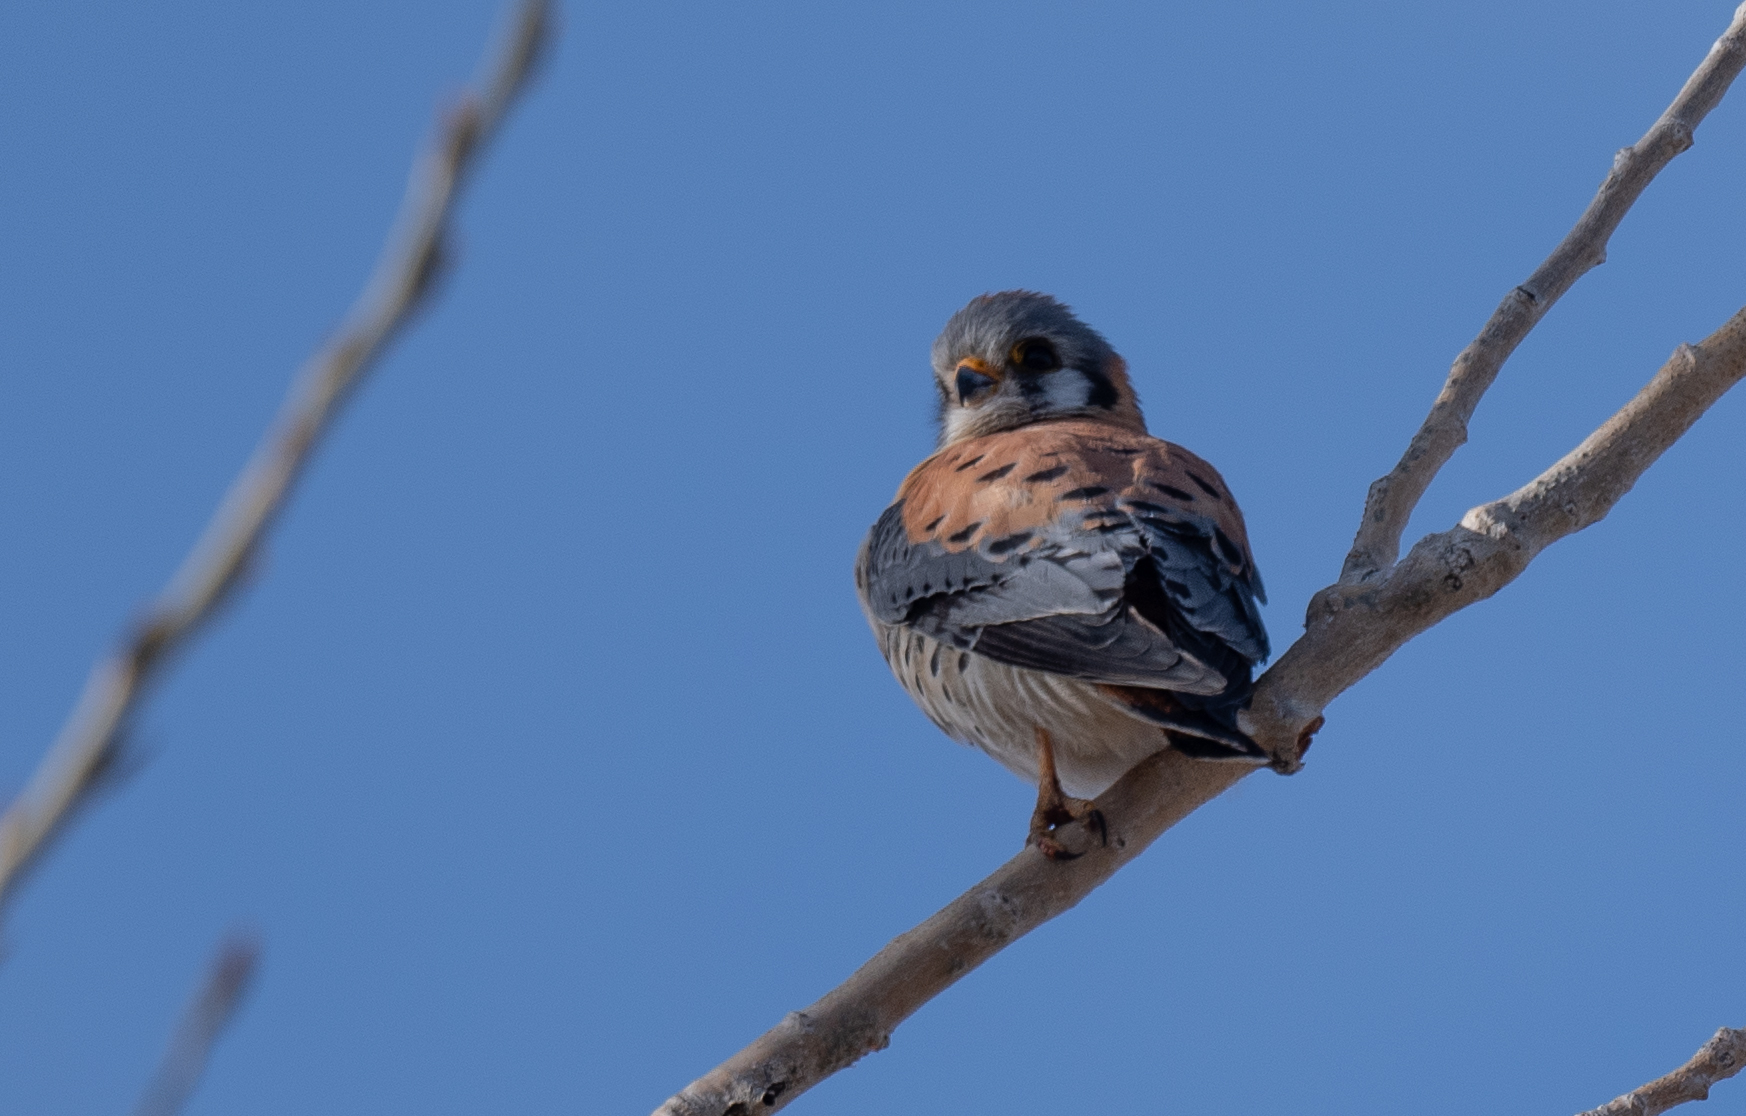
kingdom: Animalia
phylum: Chordata
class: Aves
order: Falconiformes
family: Falconidae
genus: Falco
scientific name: Falco sparverius
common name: American kestrel
